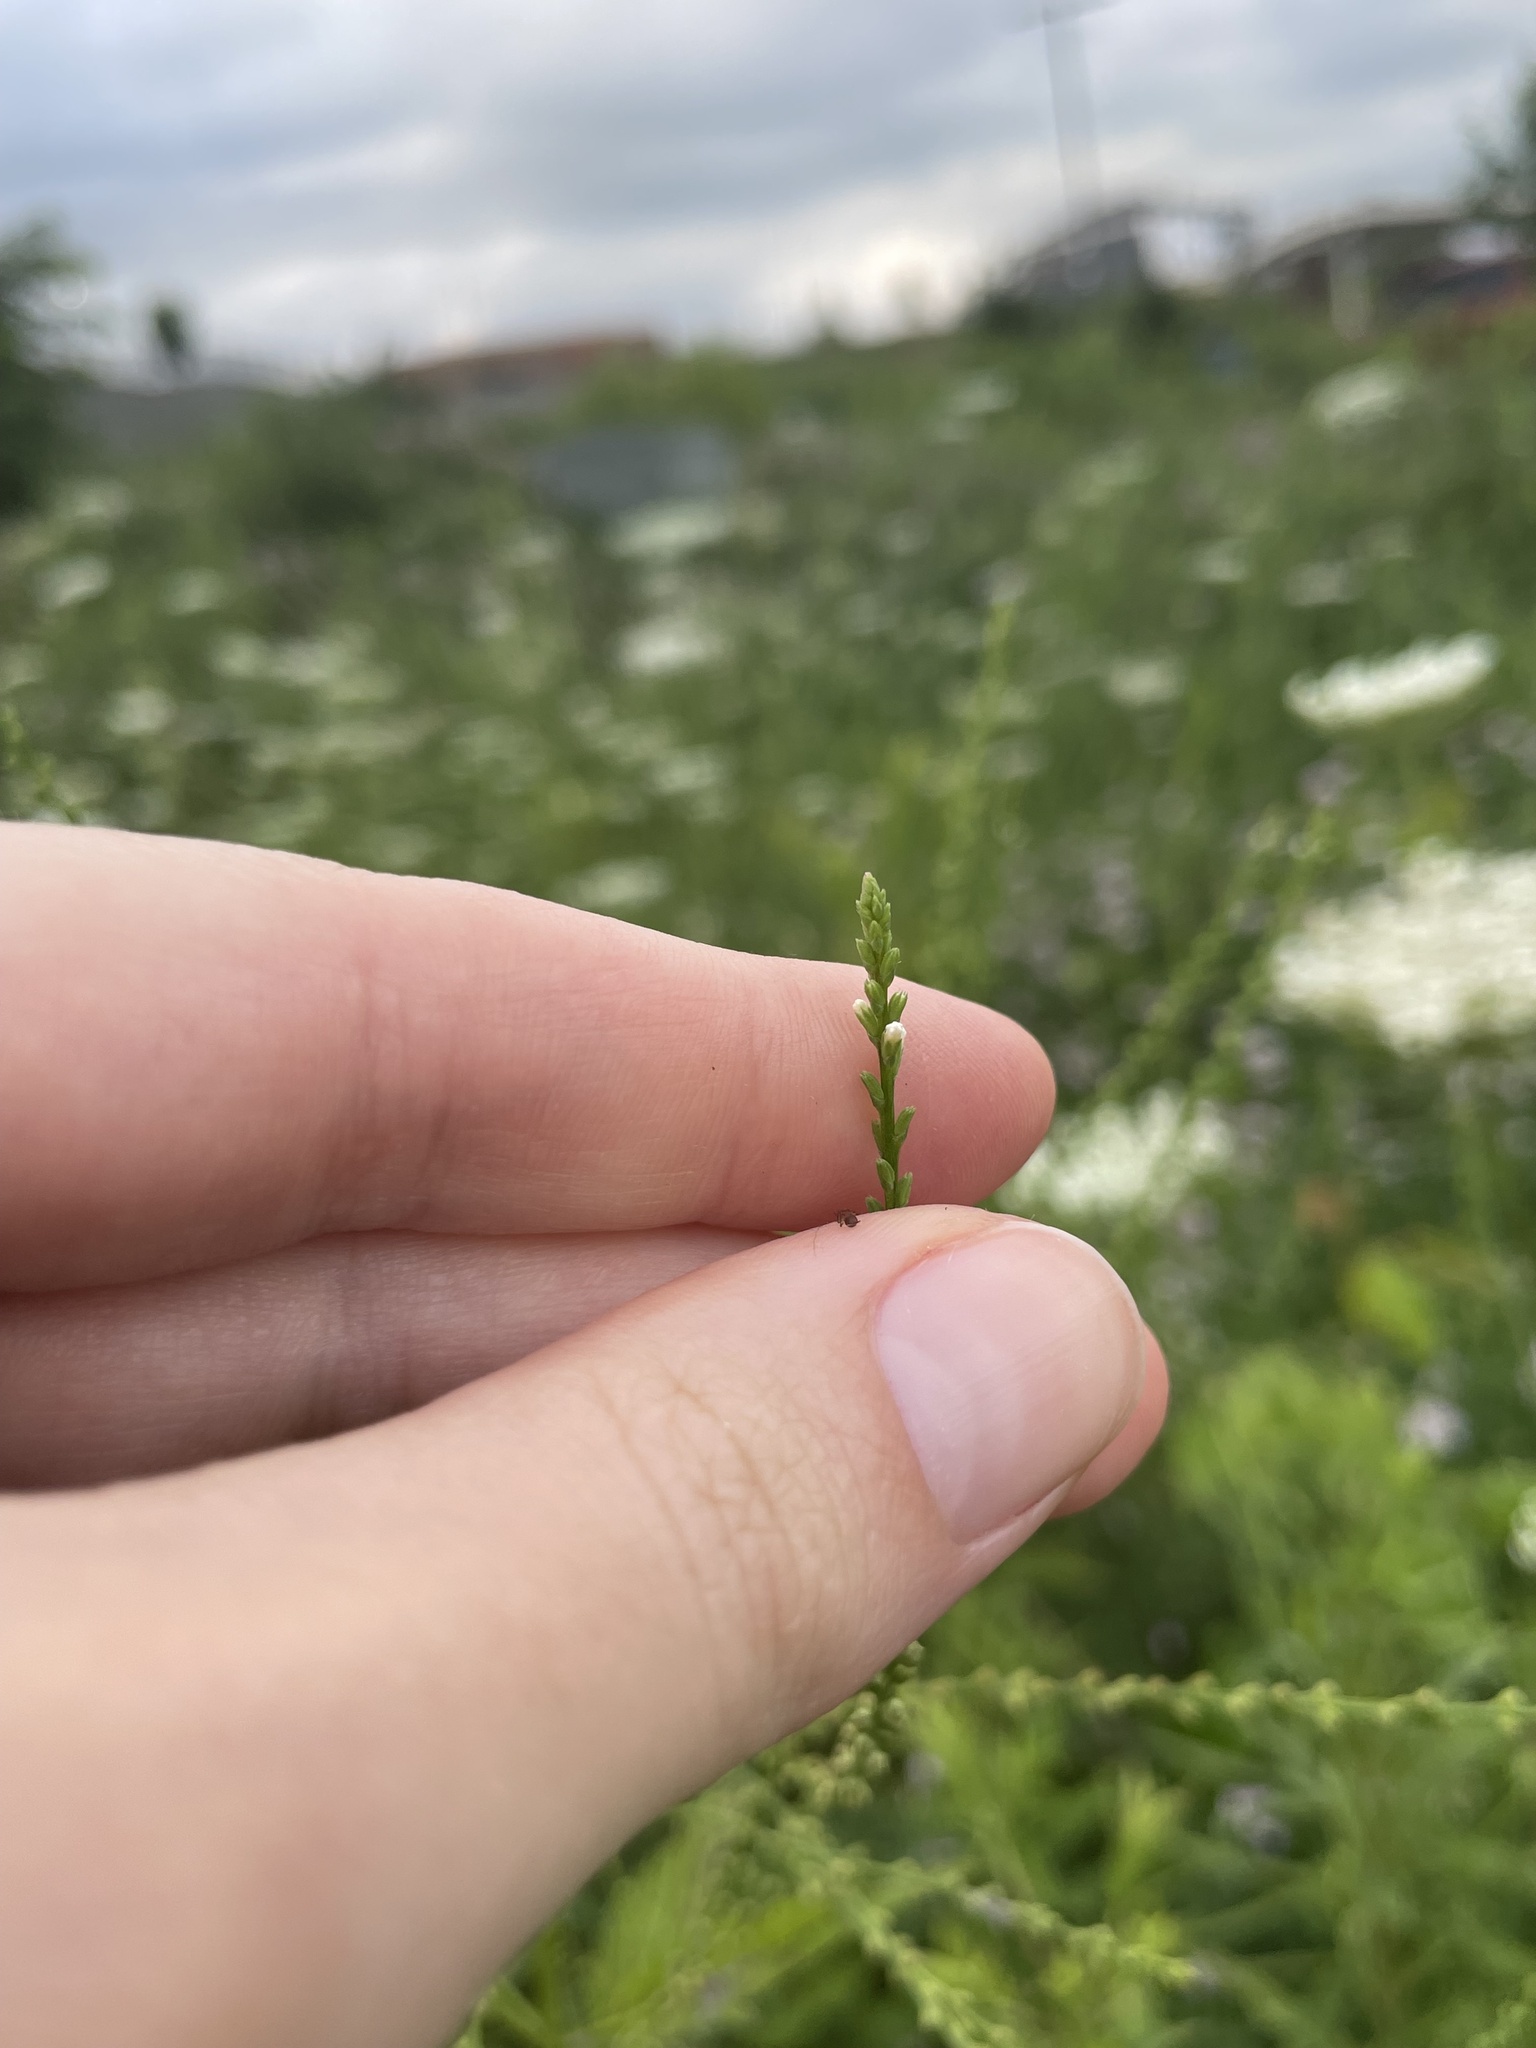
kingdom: Plantae
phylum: Tracheophyta
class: Magnoliopsida
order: Lamiales
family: Verbenaceae
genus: Verbena
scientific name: Verbena urticifolia
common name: Nettle-leaved vervain
